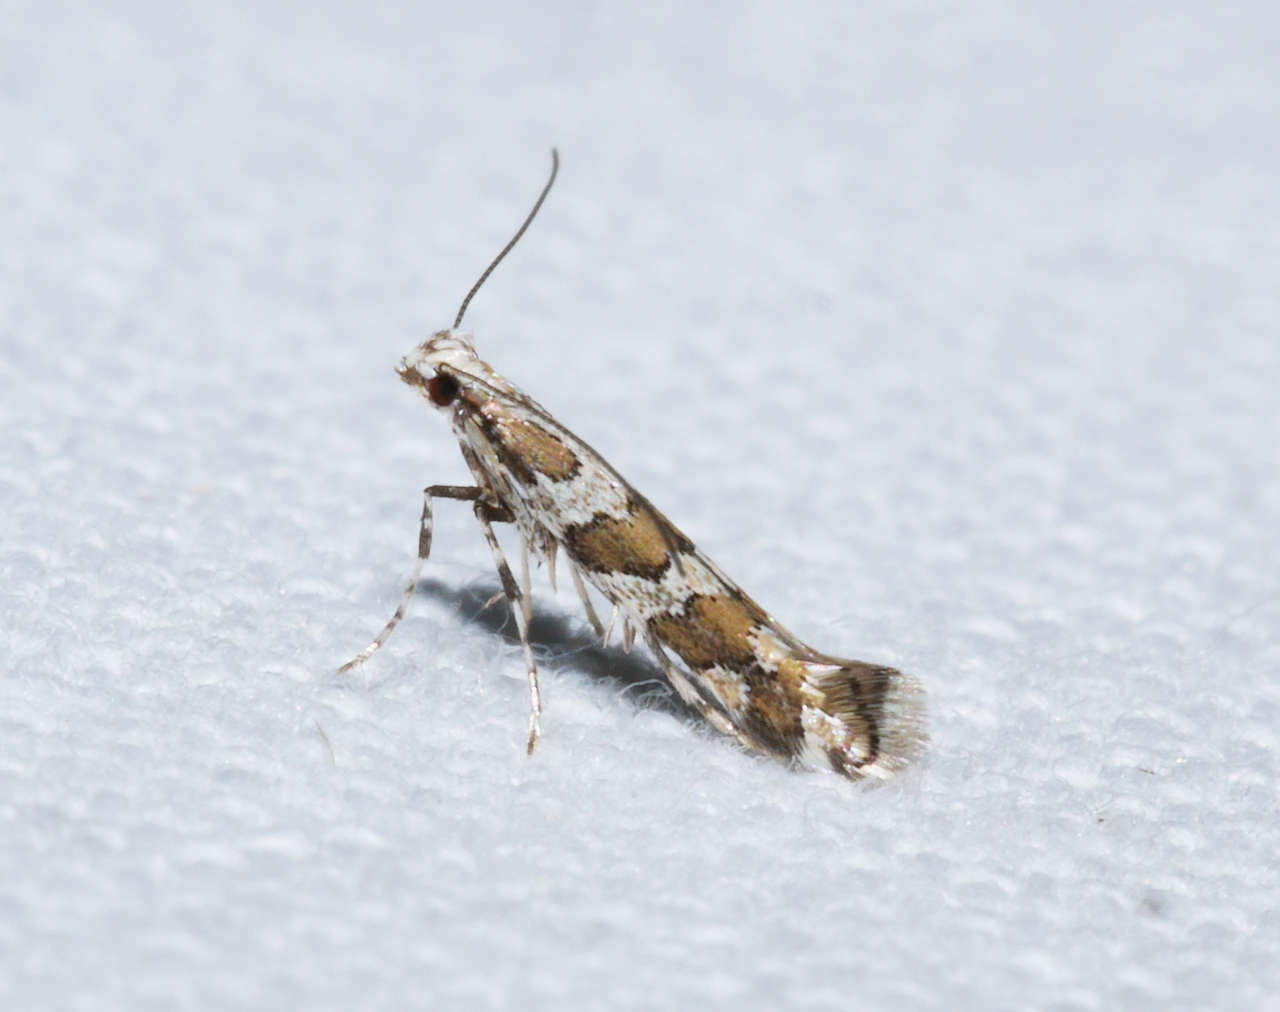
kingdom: Animalia
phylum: Arthropoda
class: Insecta
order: Lepidoptera
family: Gracillariidae
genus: Acrocercops
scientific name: Acrocercops irrorata
